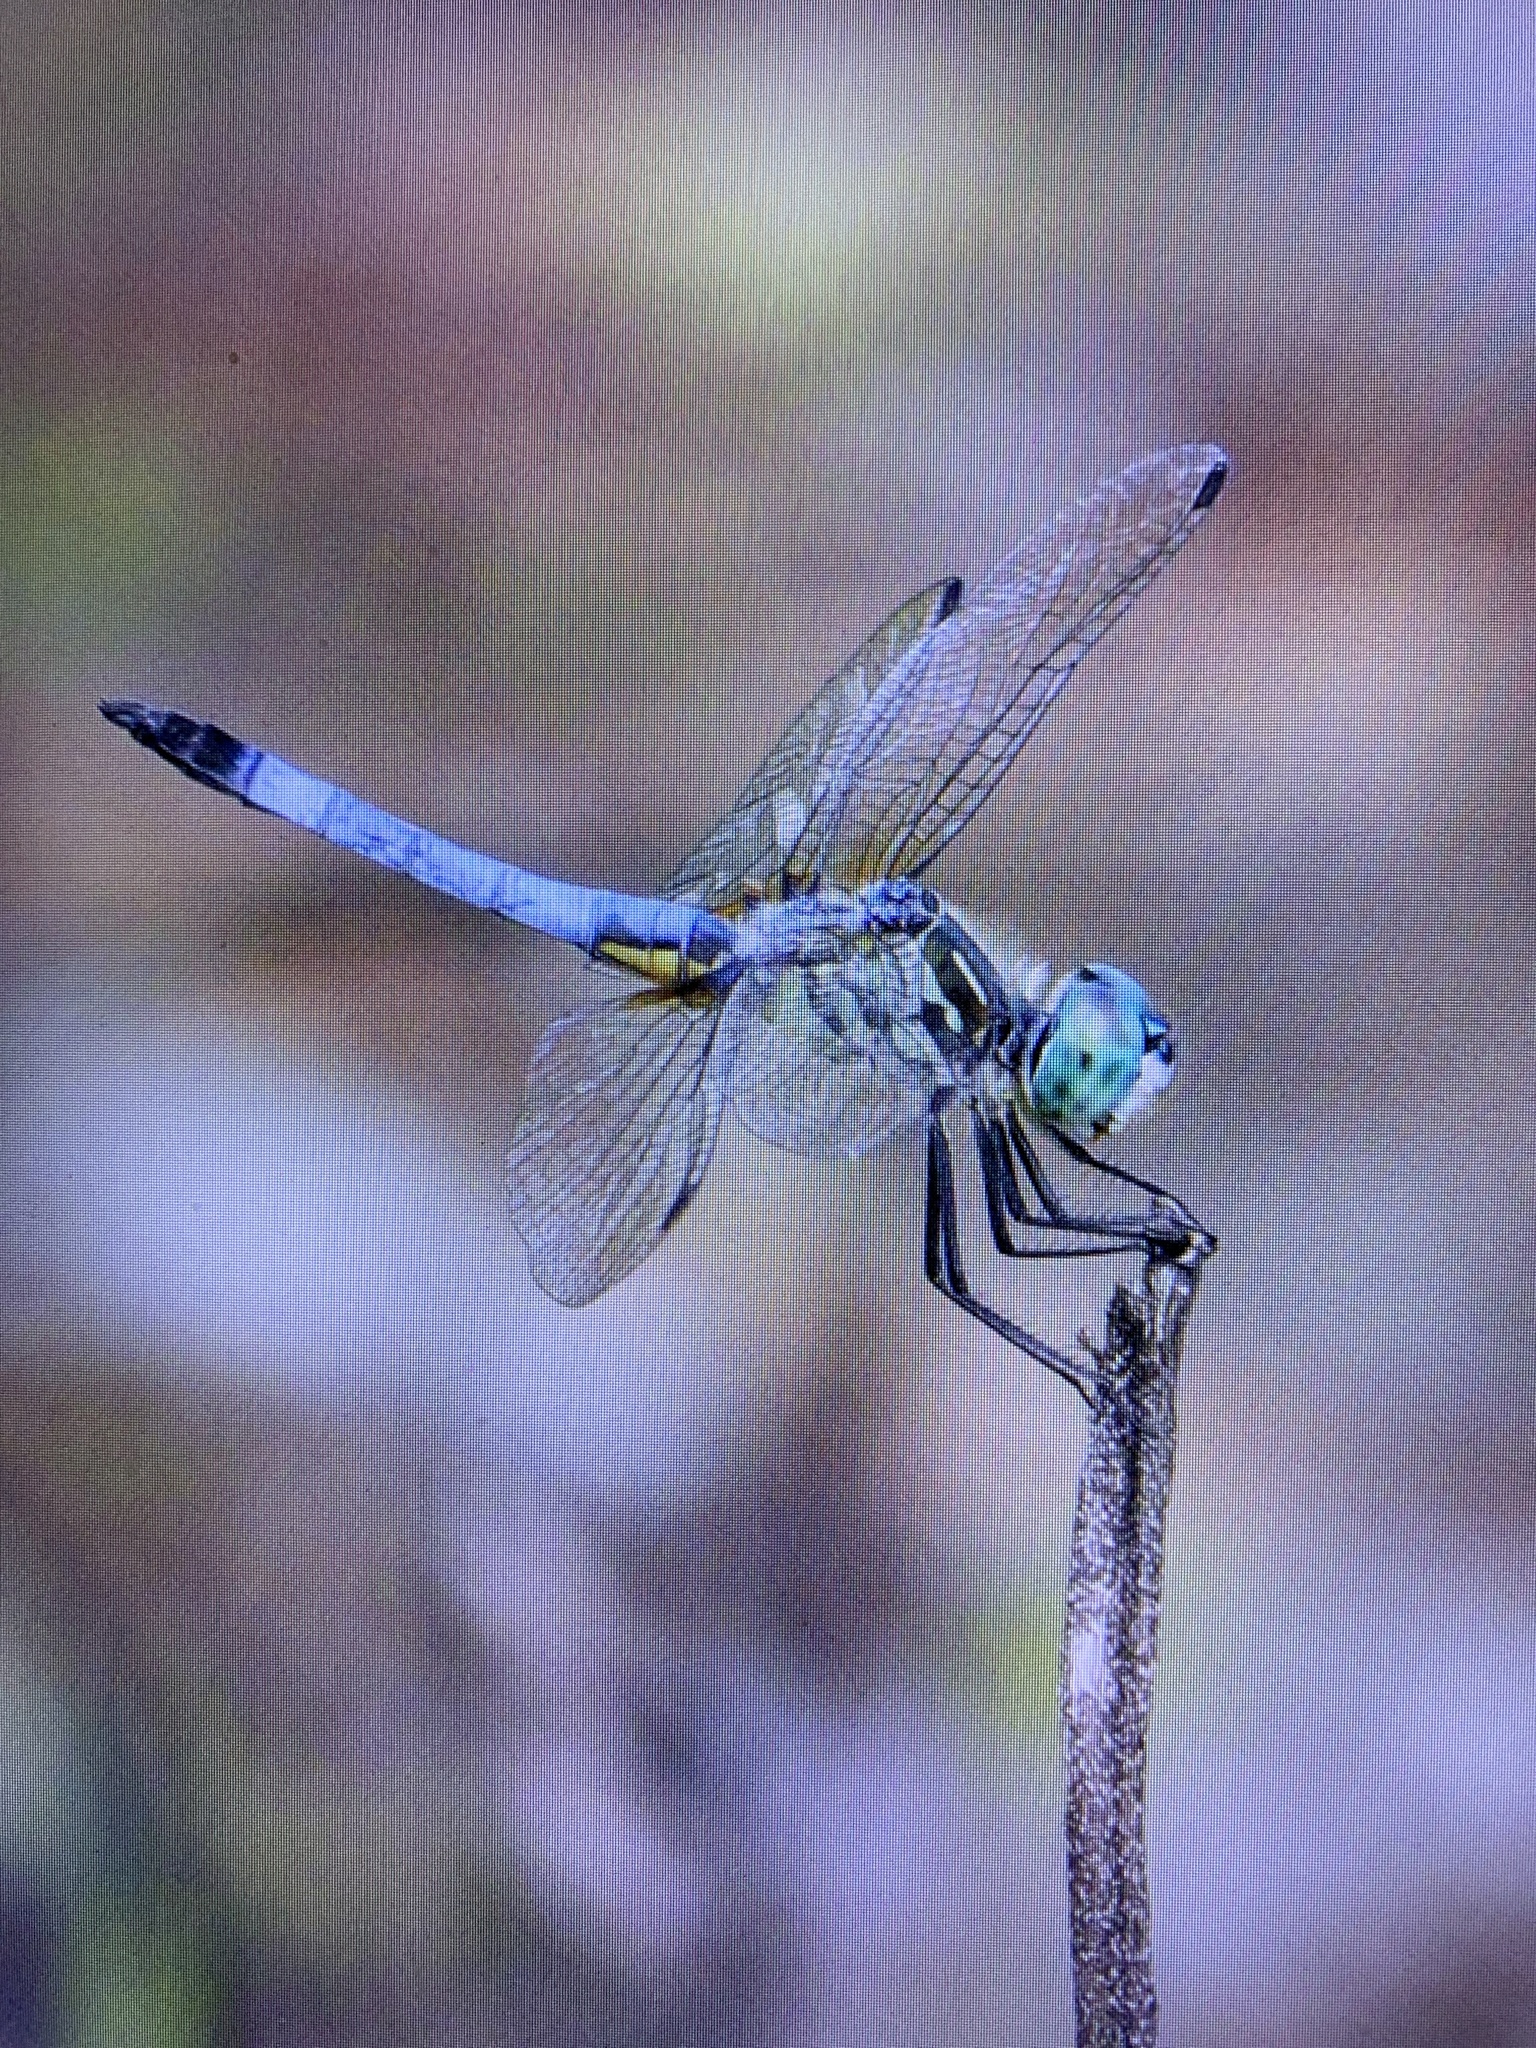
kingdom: Animalia
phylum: Arthropoda
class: Insecta
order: Odonata
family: Libellulidae
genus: Pachydiplax
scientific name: Pachydiplax longipennis
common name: Blue dasher
